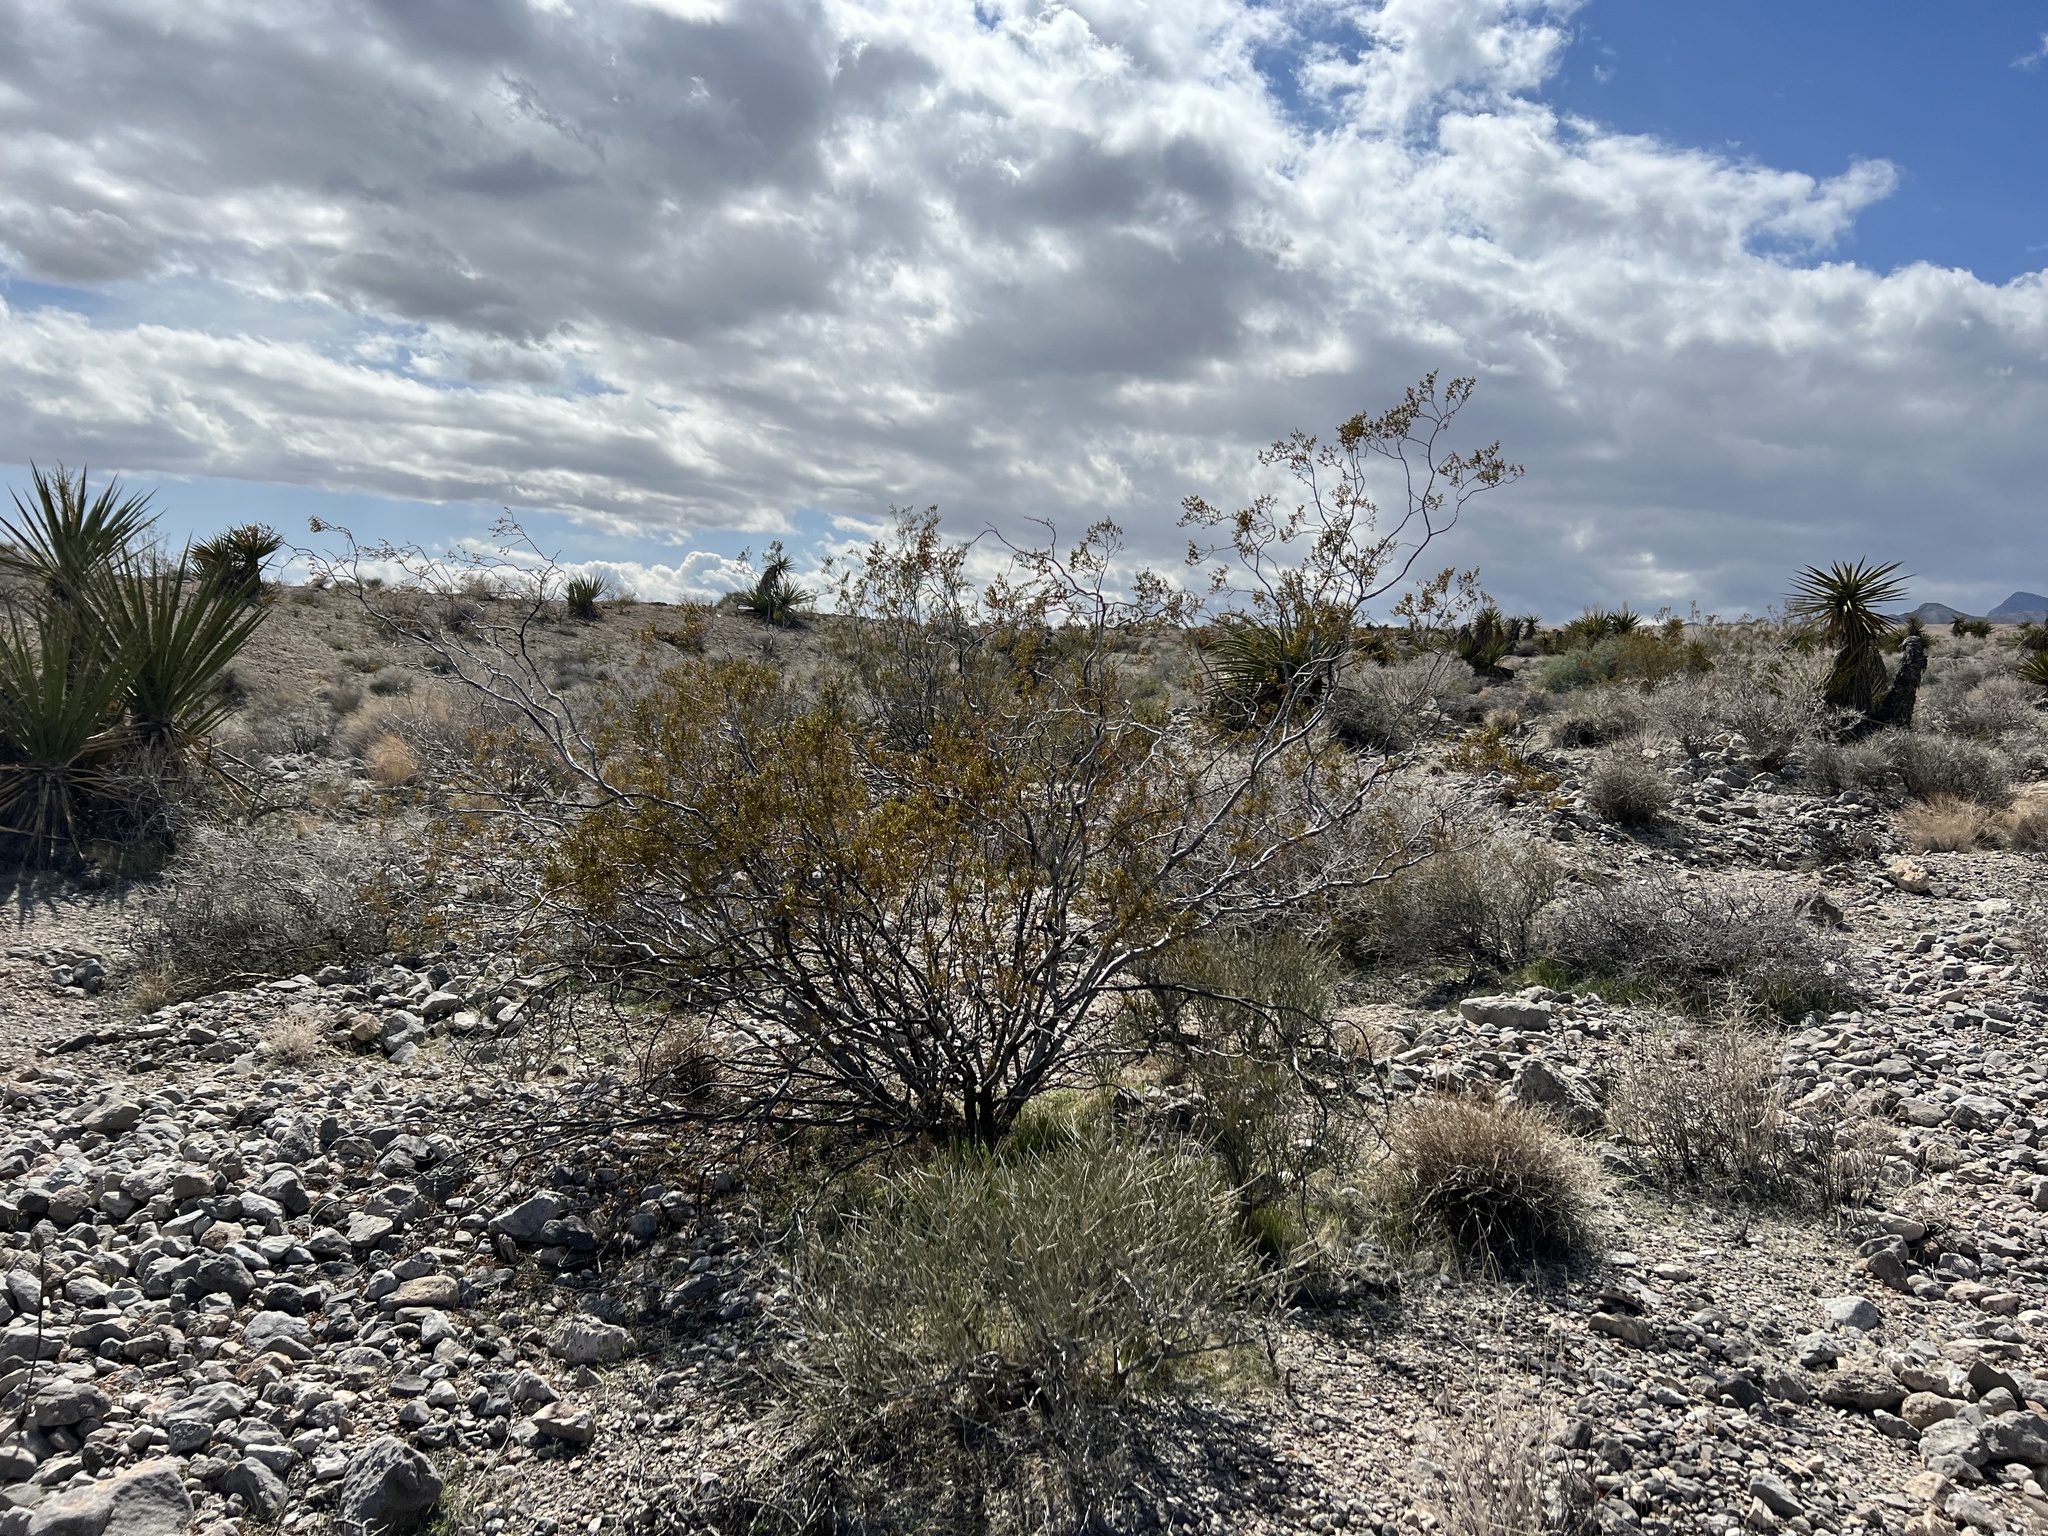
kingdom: Plantae
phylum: Tracheophyta
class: Magnoliopsida
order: Zygophyllales
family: Zygophyllaceae
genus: Larrea
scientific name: Larrea tridentata
